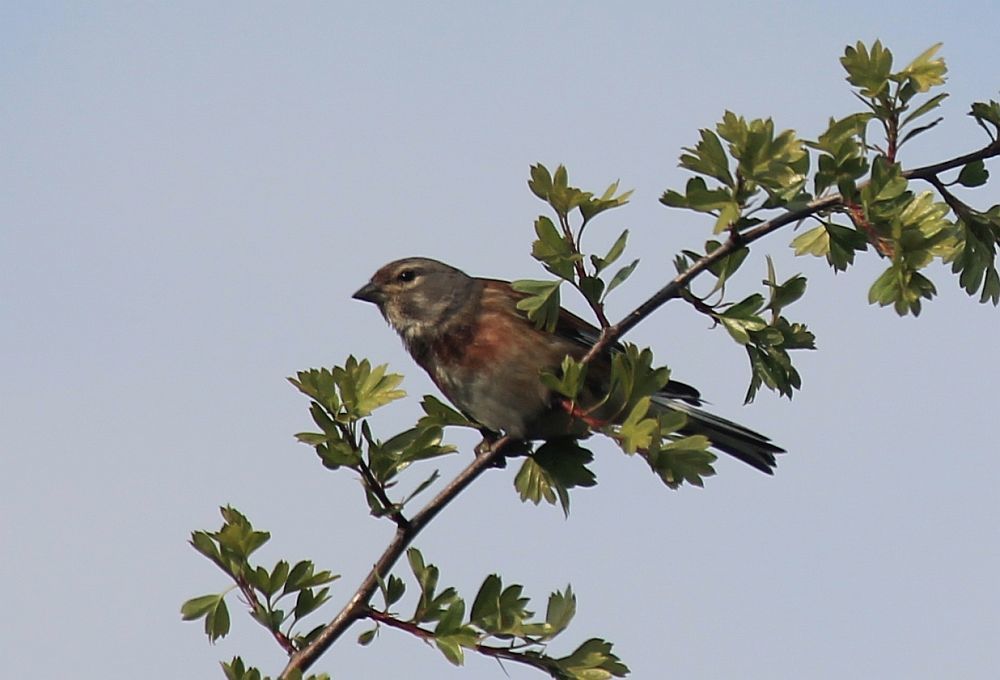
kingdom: Animalia
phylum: Chordata
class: Aves
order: Passeriformes
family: Fringillidae
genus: Linaria
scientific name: Linaria cannabina
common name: Common linnet
